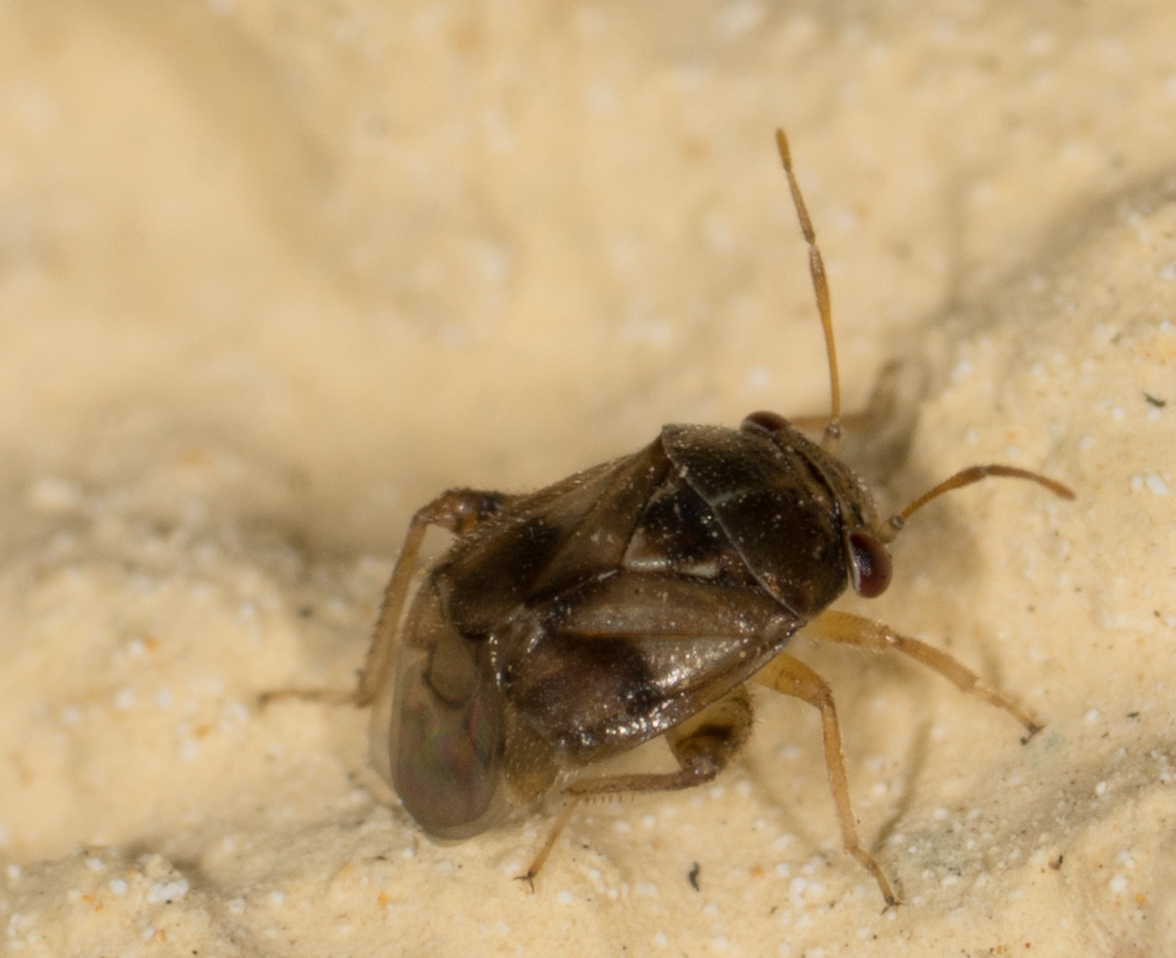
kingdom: Animalia
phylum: Arthropoda
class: Insecta
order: Hemiptera
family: Miridae
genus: Coridromius
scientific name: Coridromius chenopoderis
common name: Plant bug
